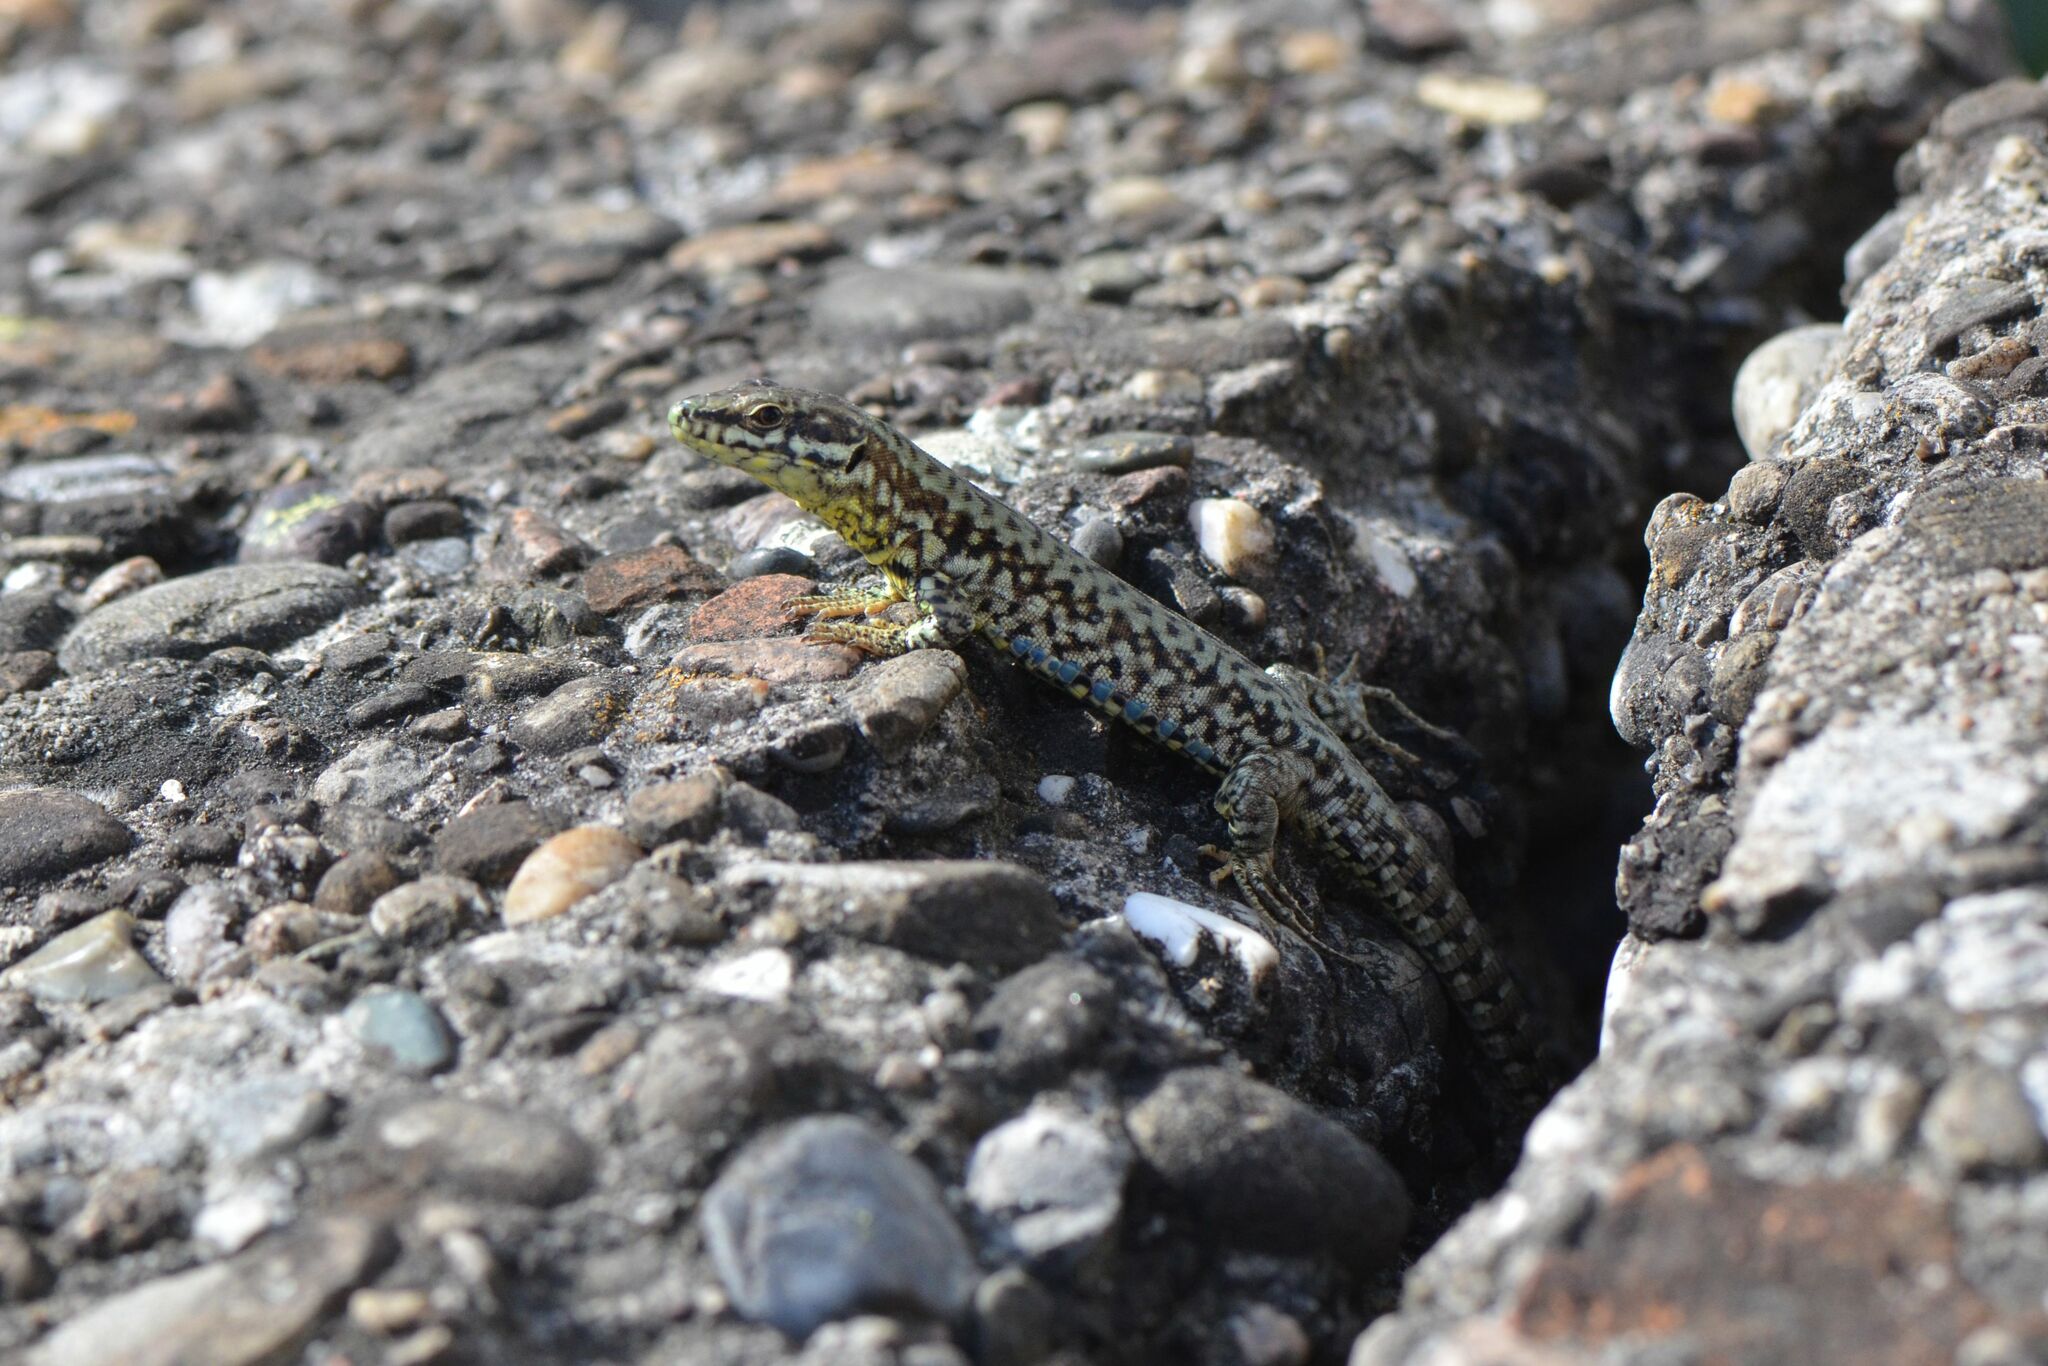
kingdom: Animalia
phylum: Chordata
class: Squamata
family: Lacertidae
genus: Podarcis
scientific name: Podarcis muralis
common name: Common wall lizard
